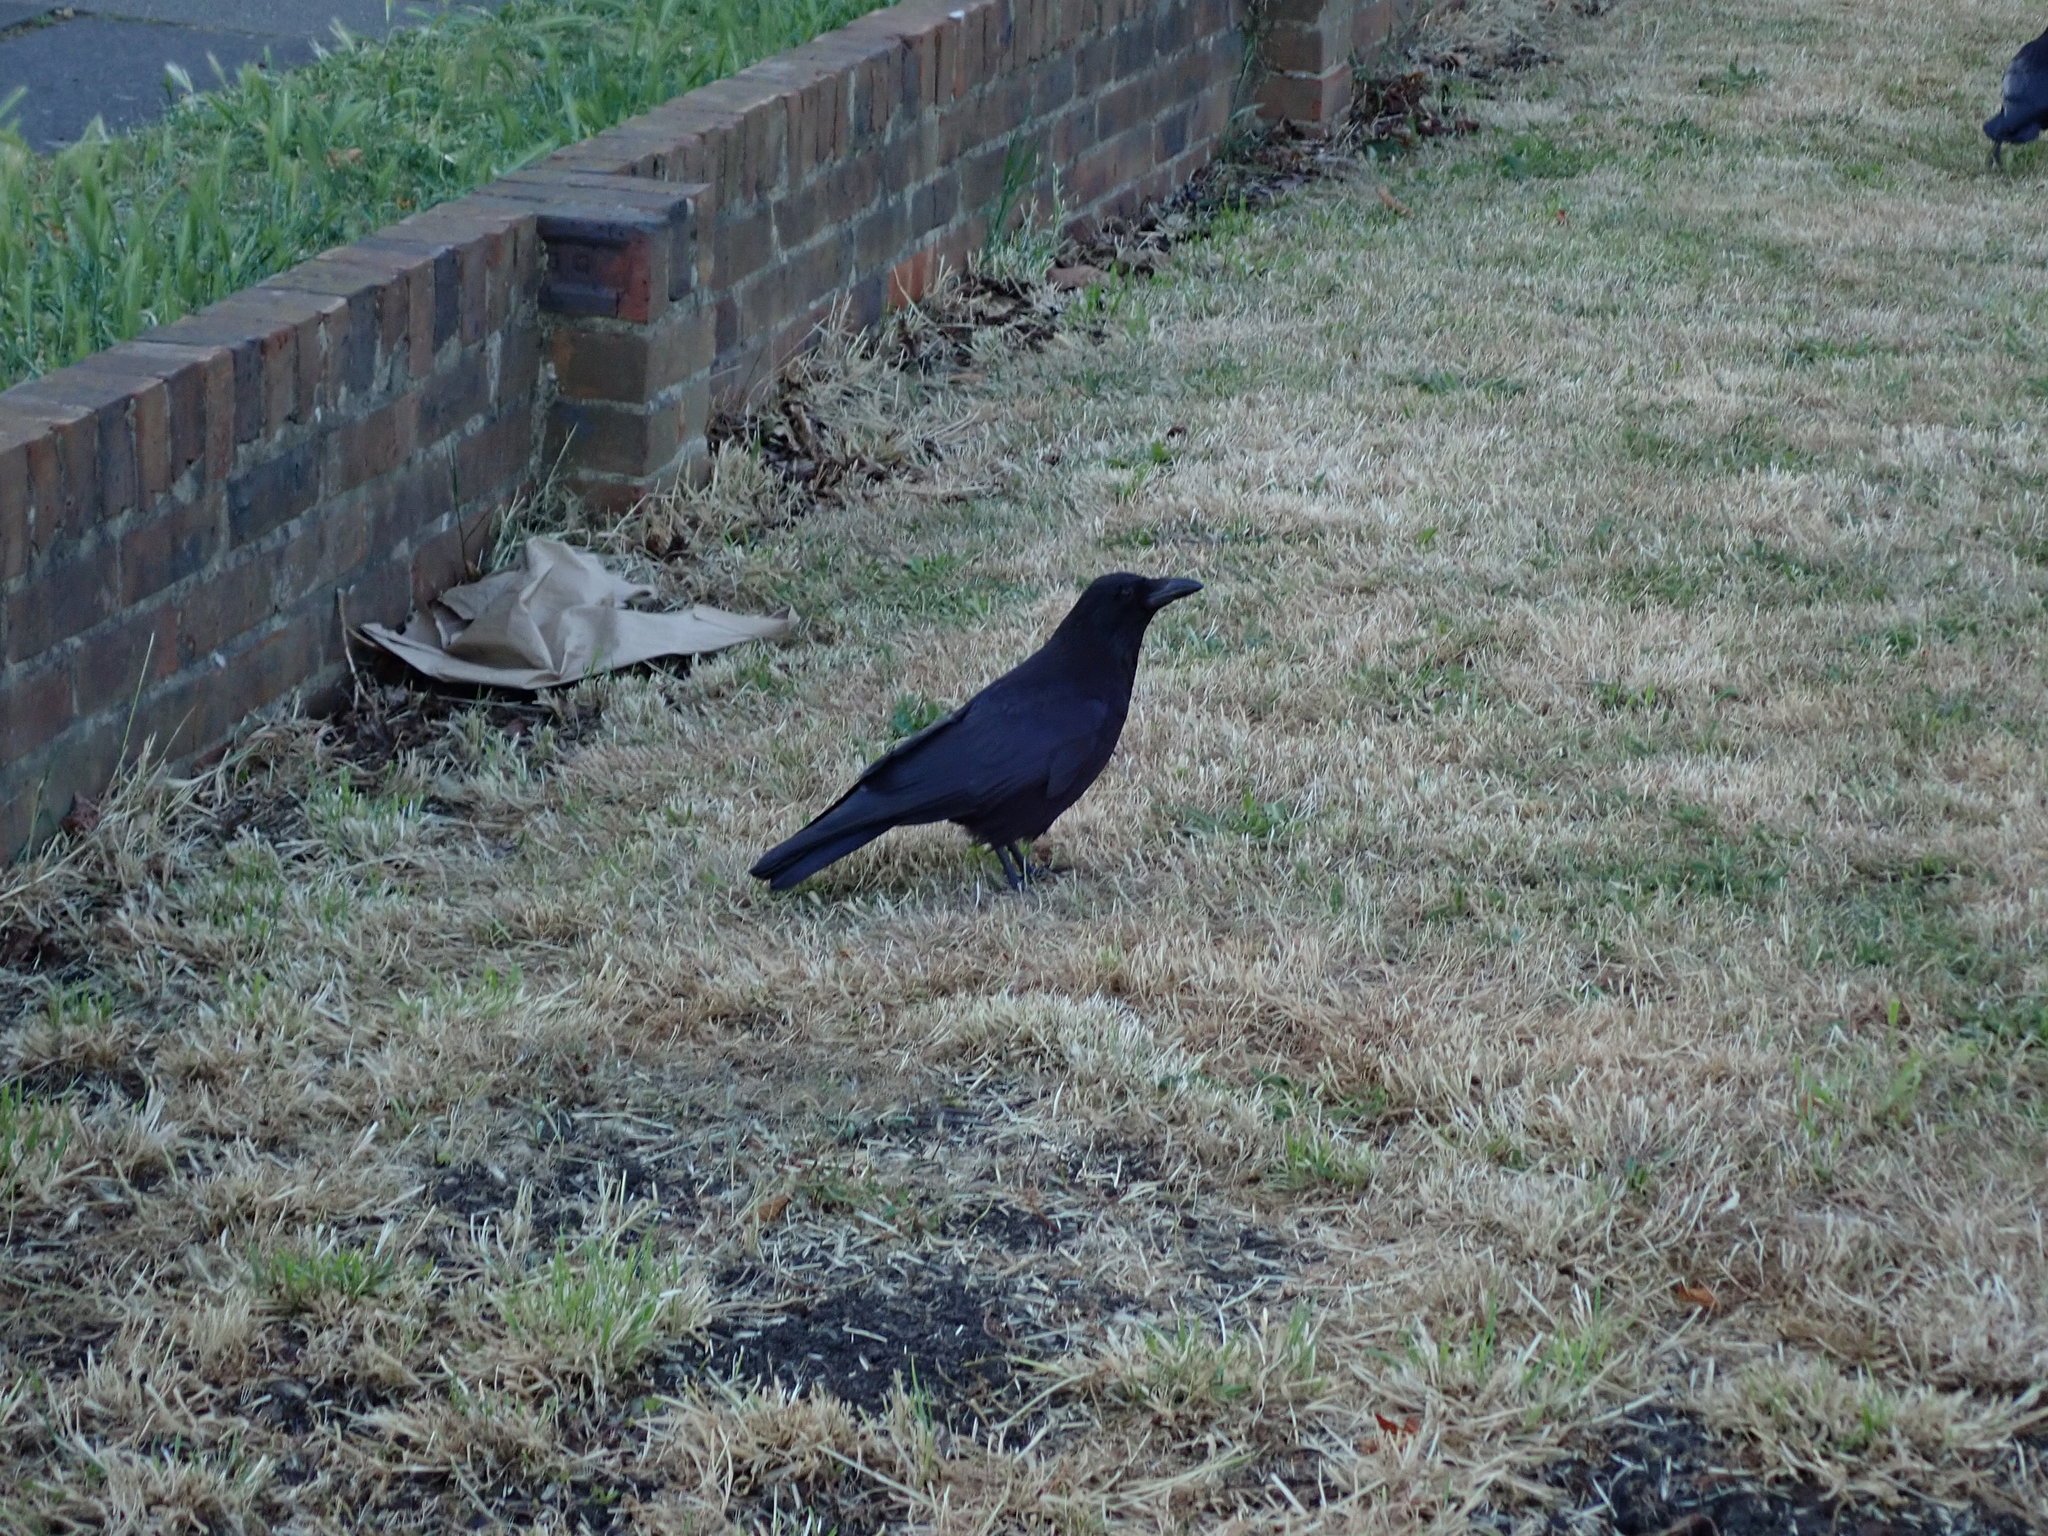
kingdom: Animalia
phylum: Chordata
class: Aves
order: Passeriformes
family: Corvidae
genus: Corvus
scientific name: Corvus corone
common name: Carrion crow
